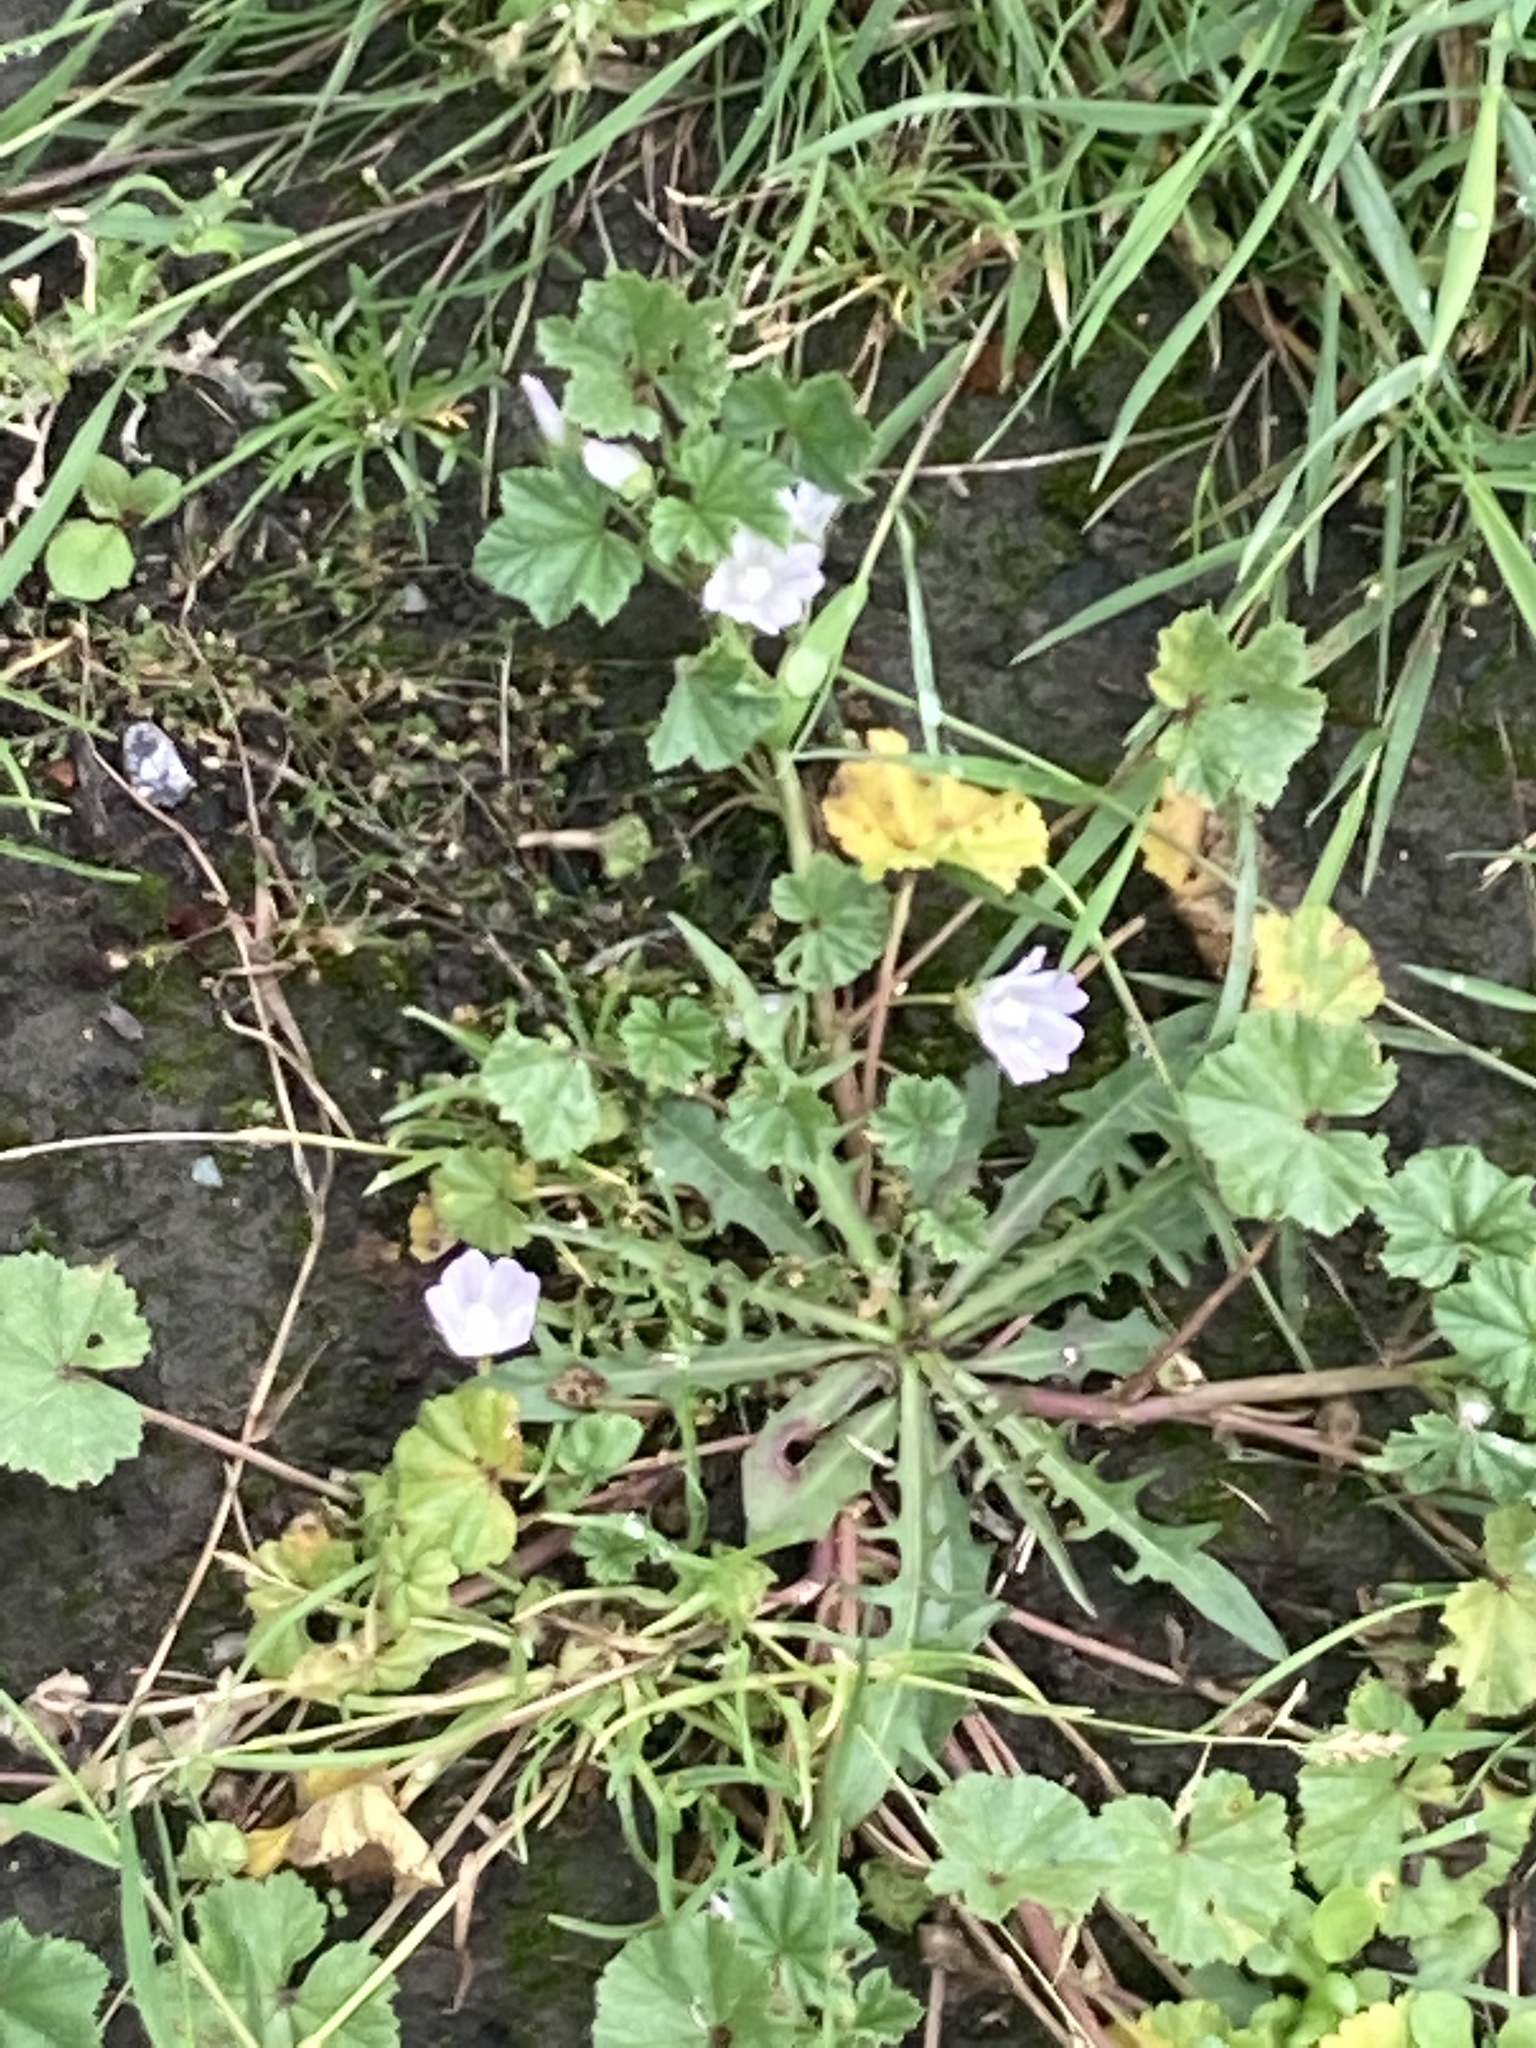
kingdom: Plantae
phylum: Tracheophyta
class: Magnoliopsida
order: Malvales
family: Malvaceae
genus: Malva
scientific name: Malva neglecta
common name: Common mallow
